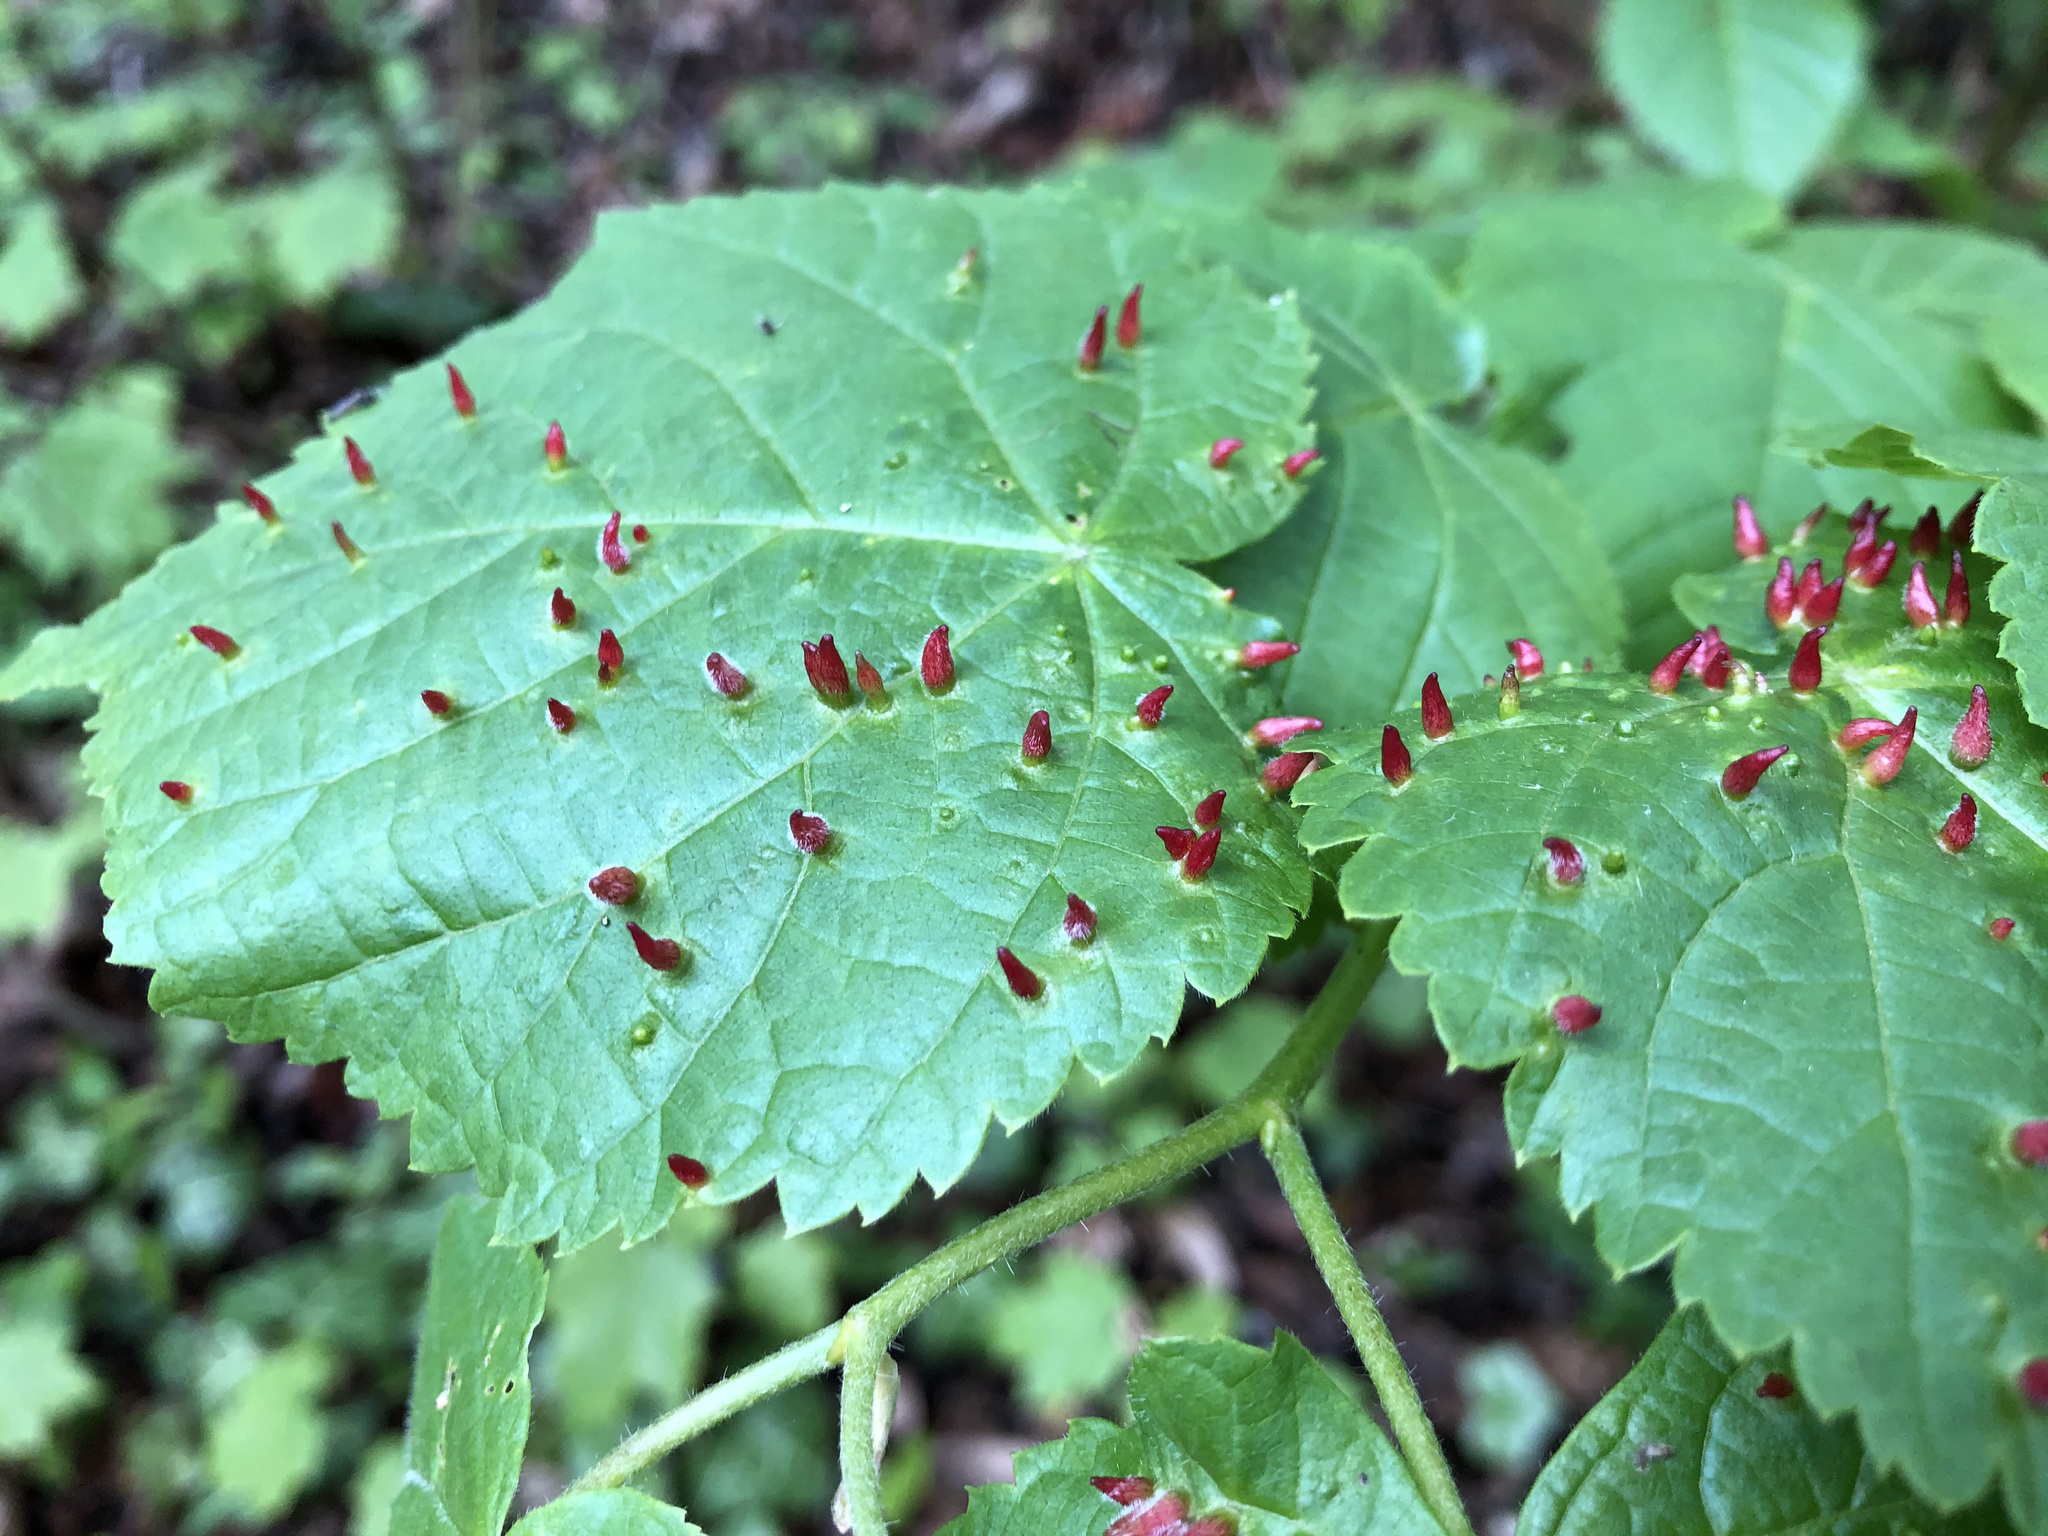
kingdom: Animalia
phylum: Arthropoda
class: Arachnida
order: Trombidiformes
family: Eriophyidae
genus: Eriophyes
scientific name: Eriophyes tiliae
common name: Red nail gall mite
